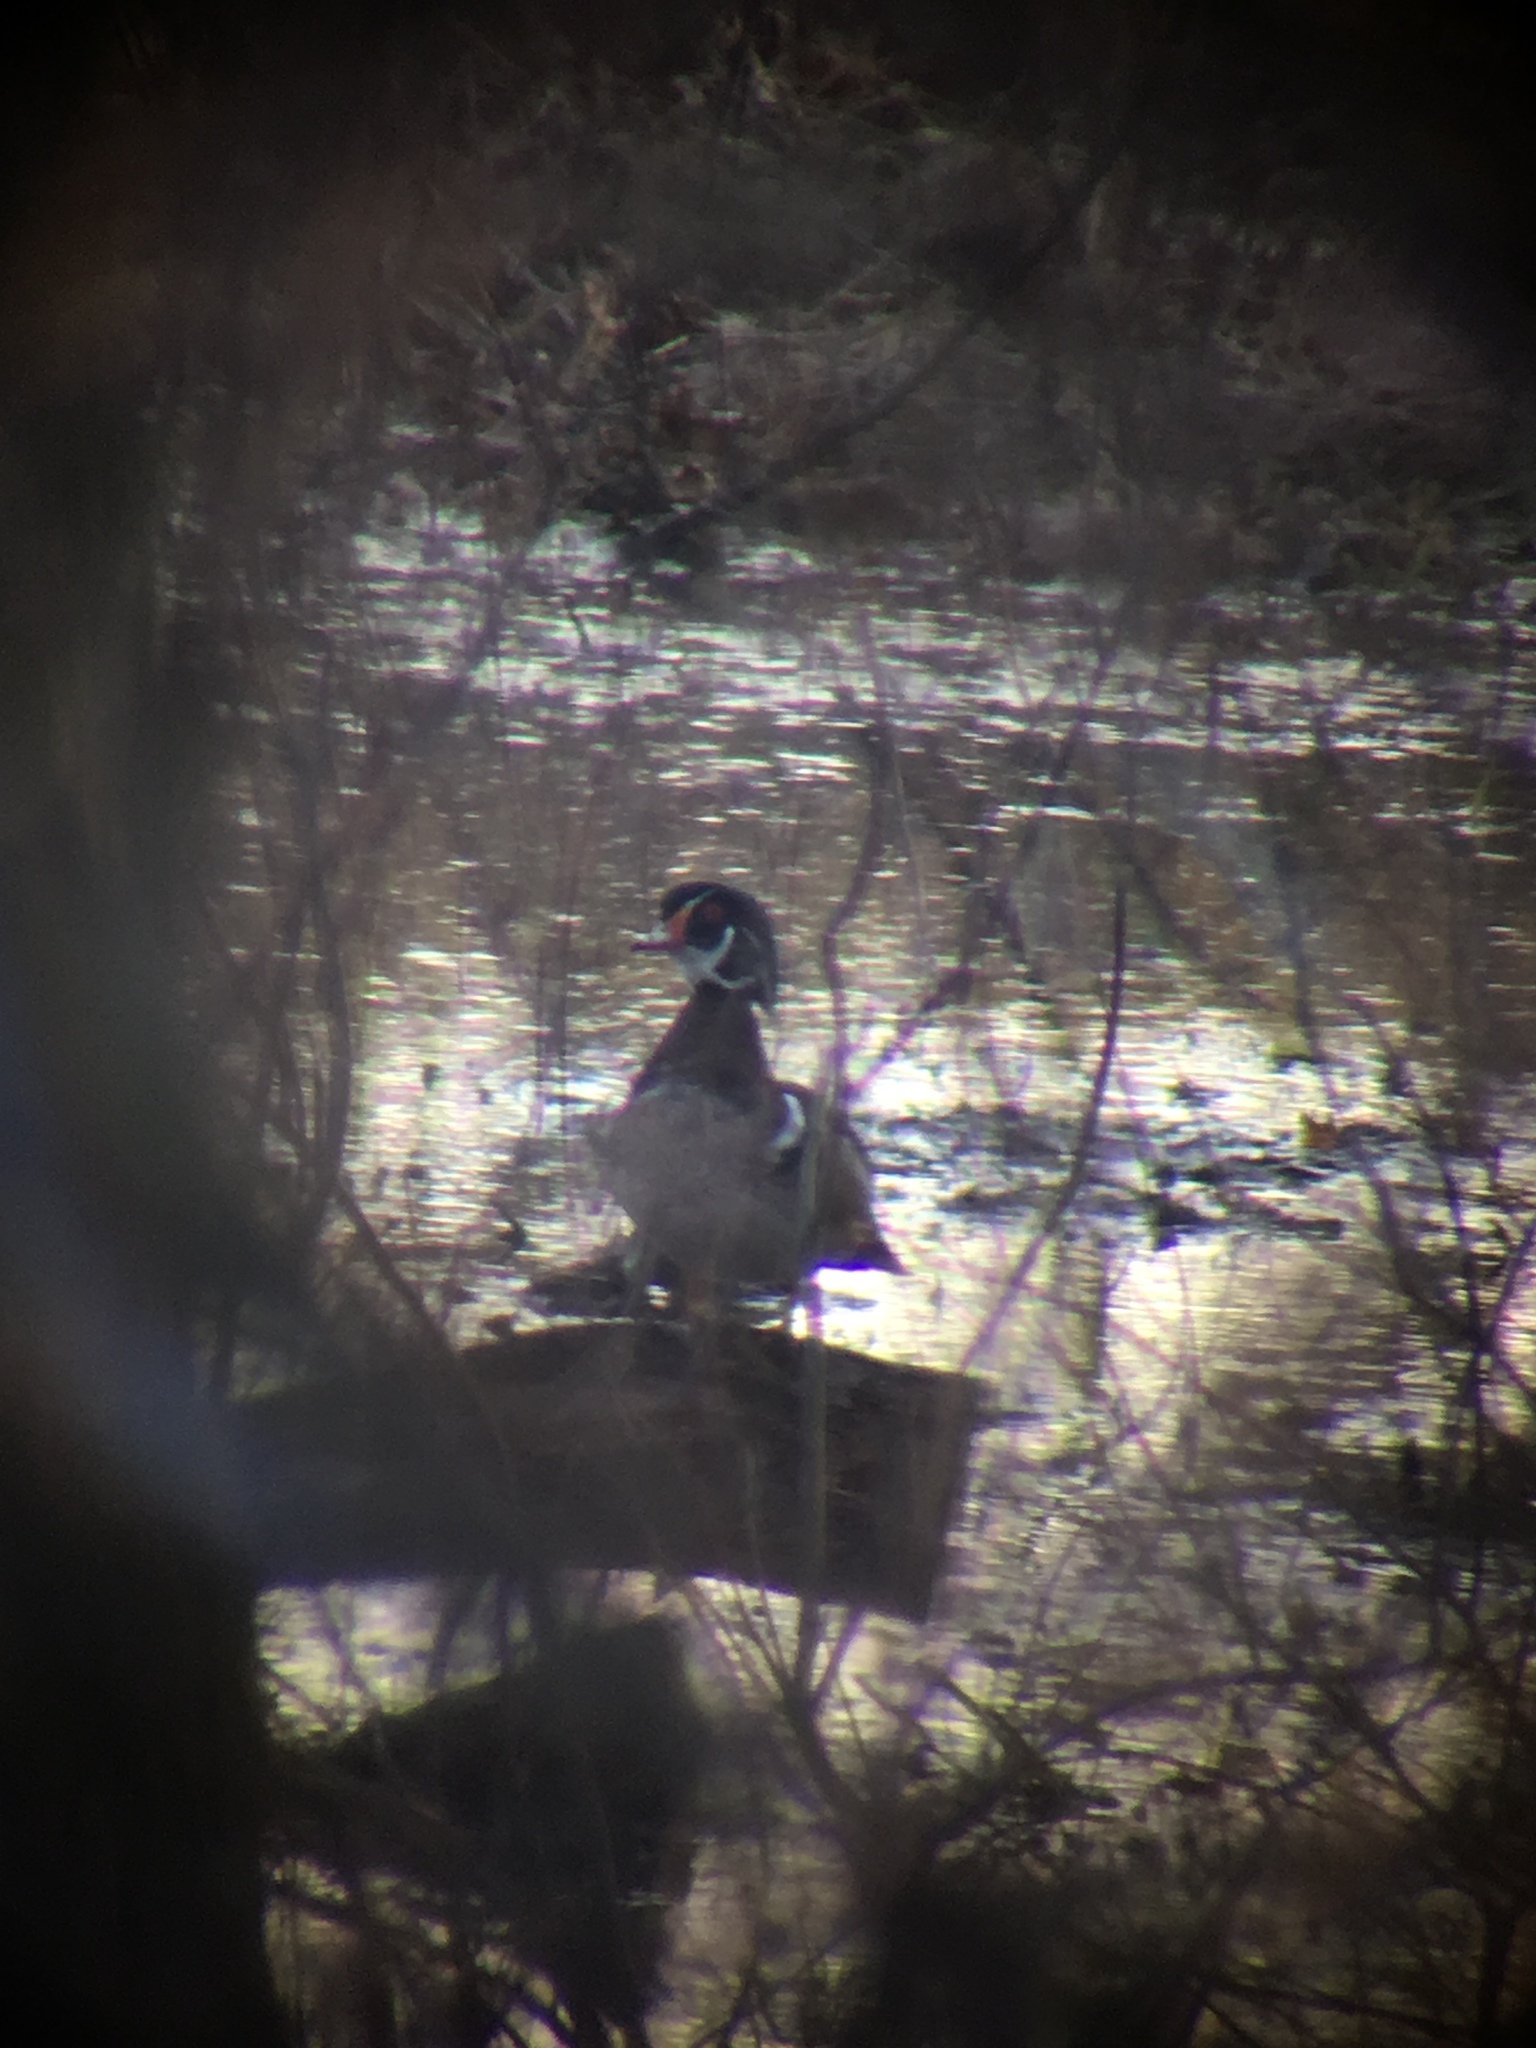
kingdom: Animalia
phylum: Chordata
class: Aves
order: Anseriformes
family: Anatidae
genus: Aix
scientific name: Aix sponsa
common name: Wood duck
